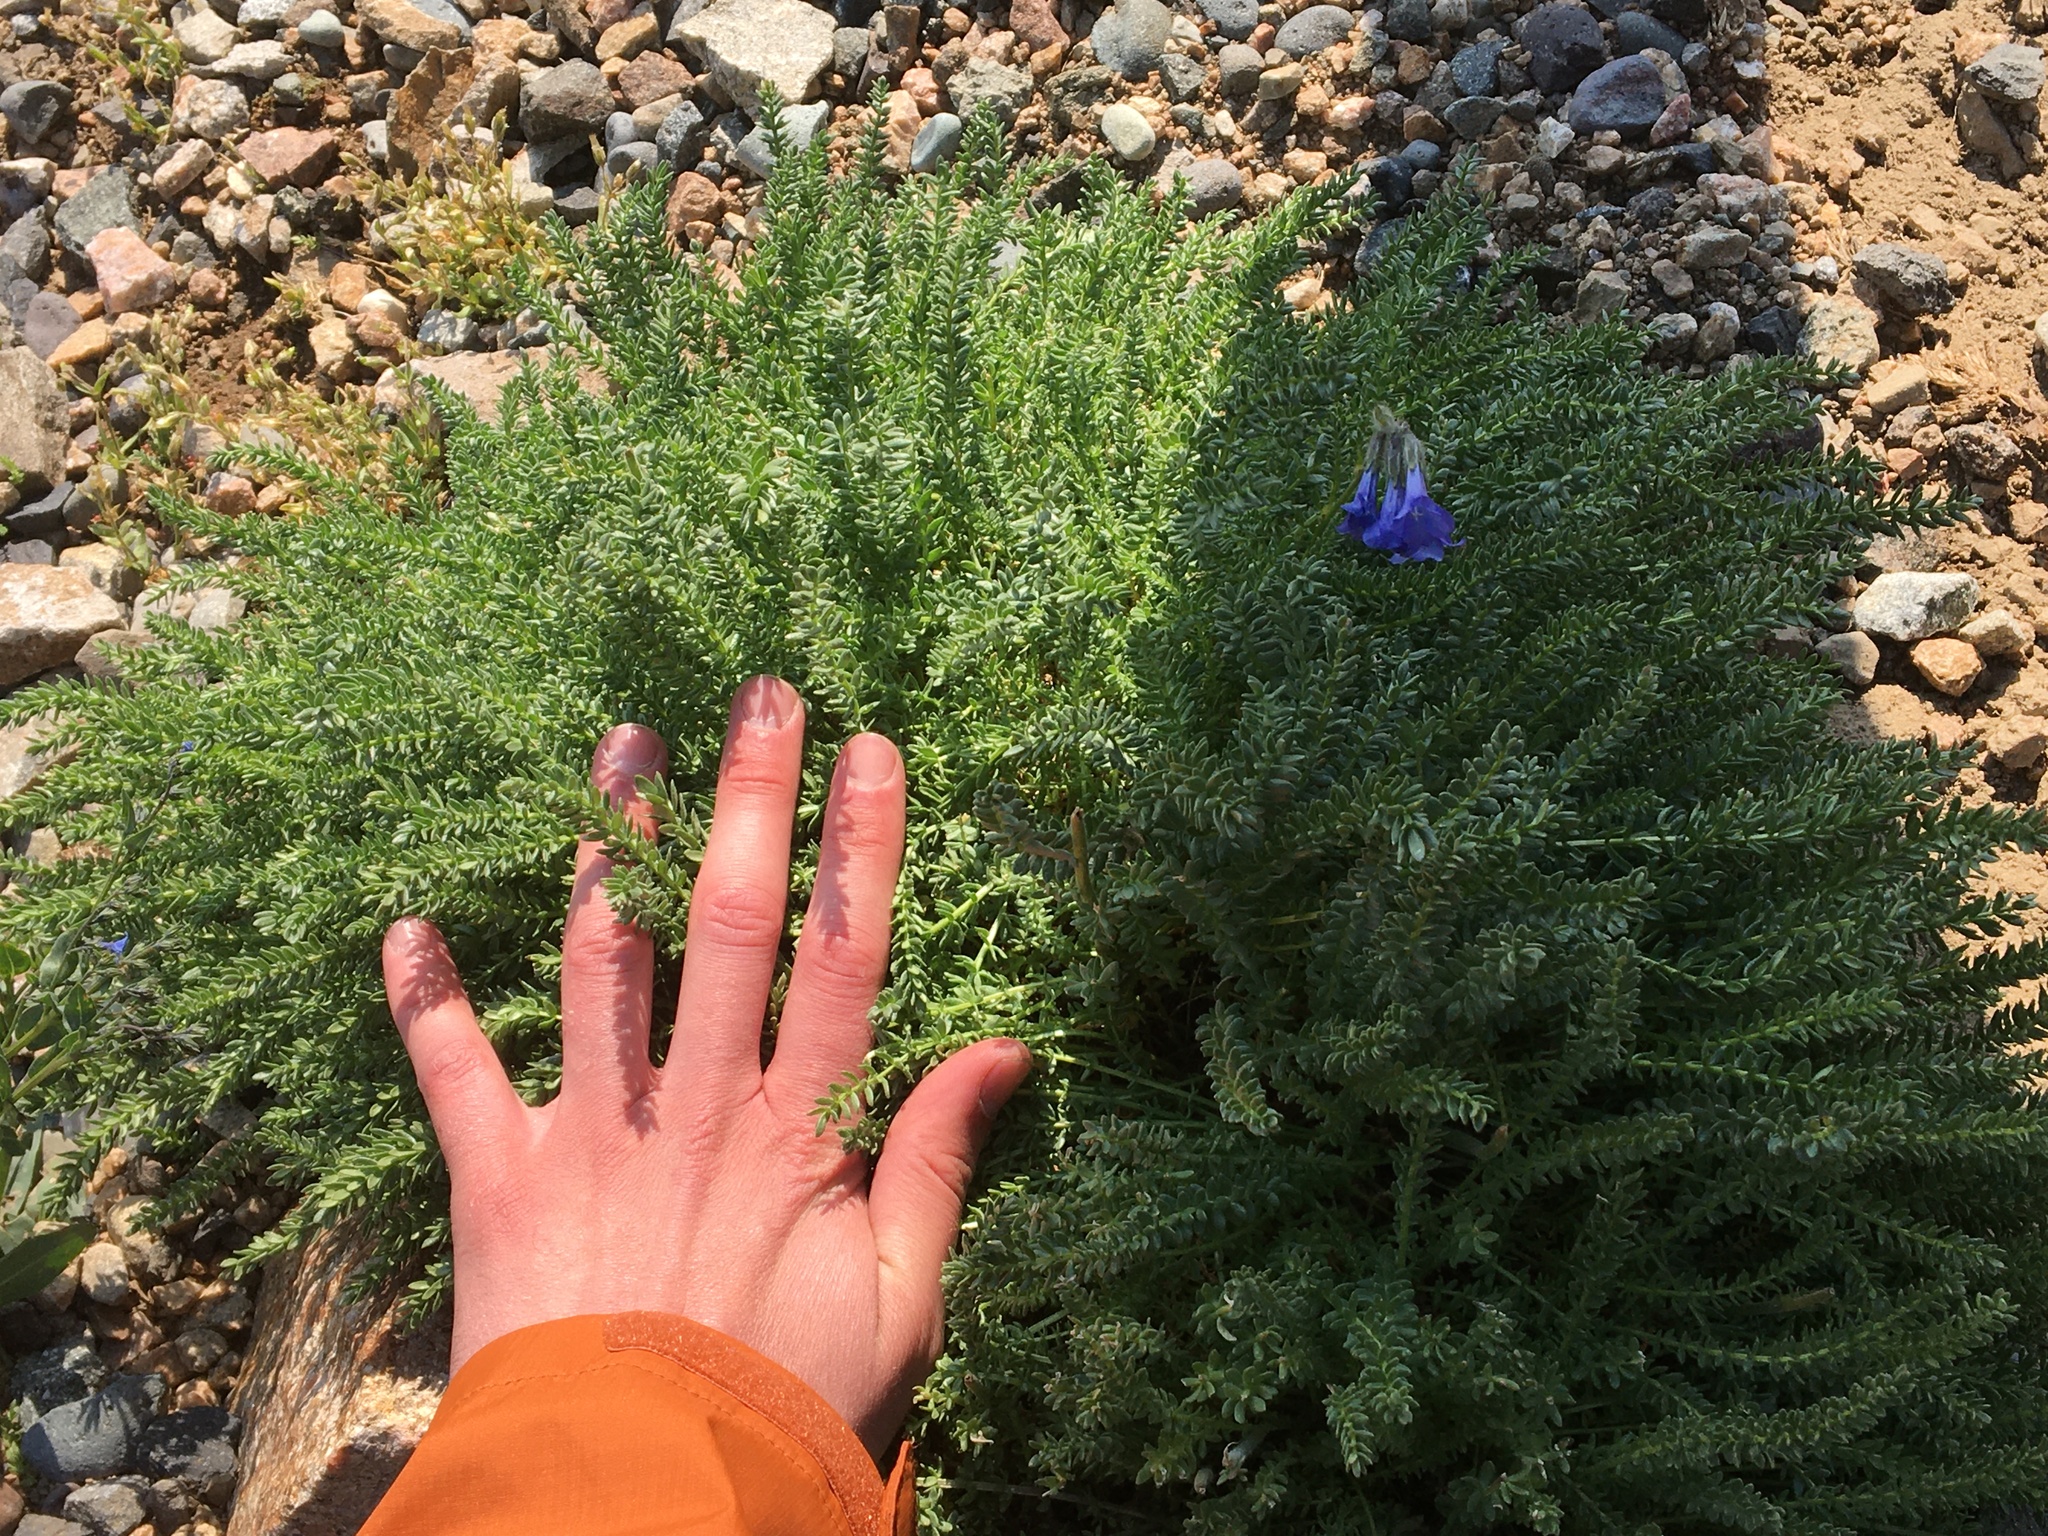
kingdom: Plantae
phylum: Tracheophyta
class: Magnoliopsida
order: Ericales
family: Polemoniaceae
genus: Polemonium
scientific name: Polemonium viscosum
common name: Skunk jacob's-ladder
